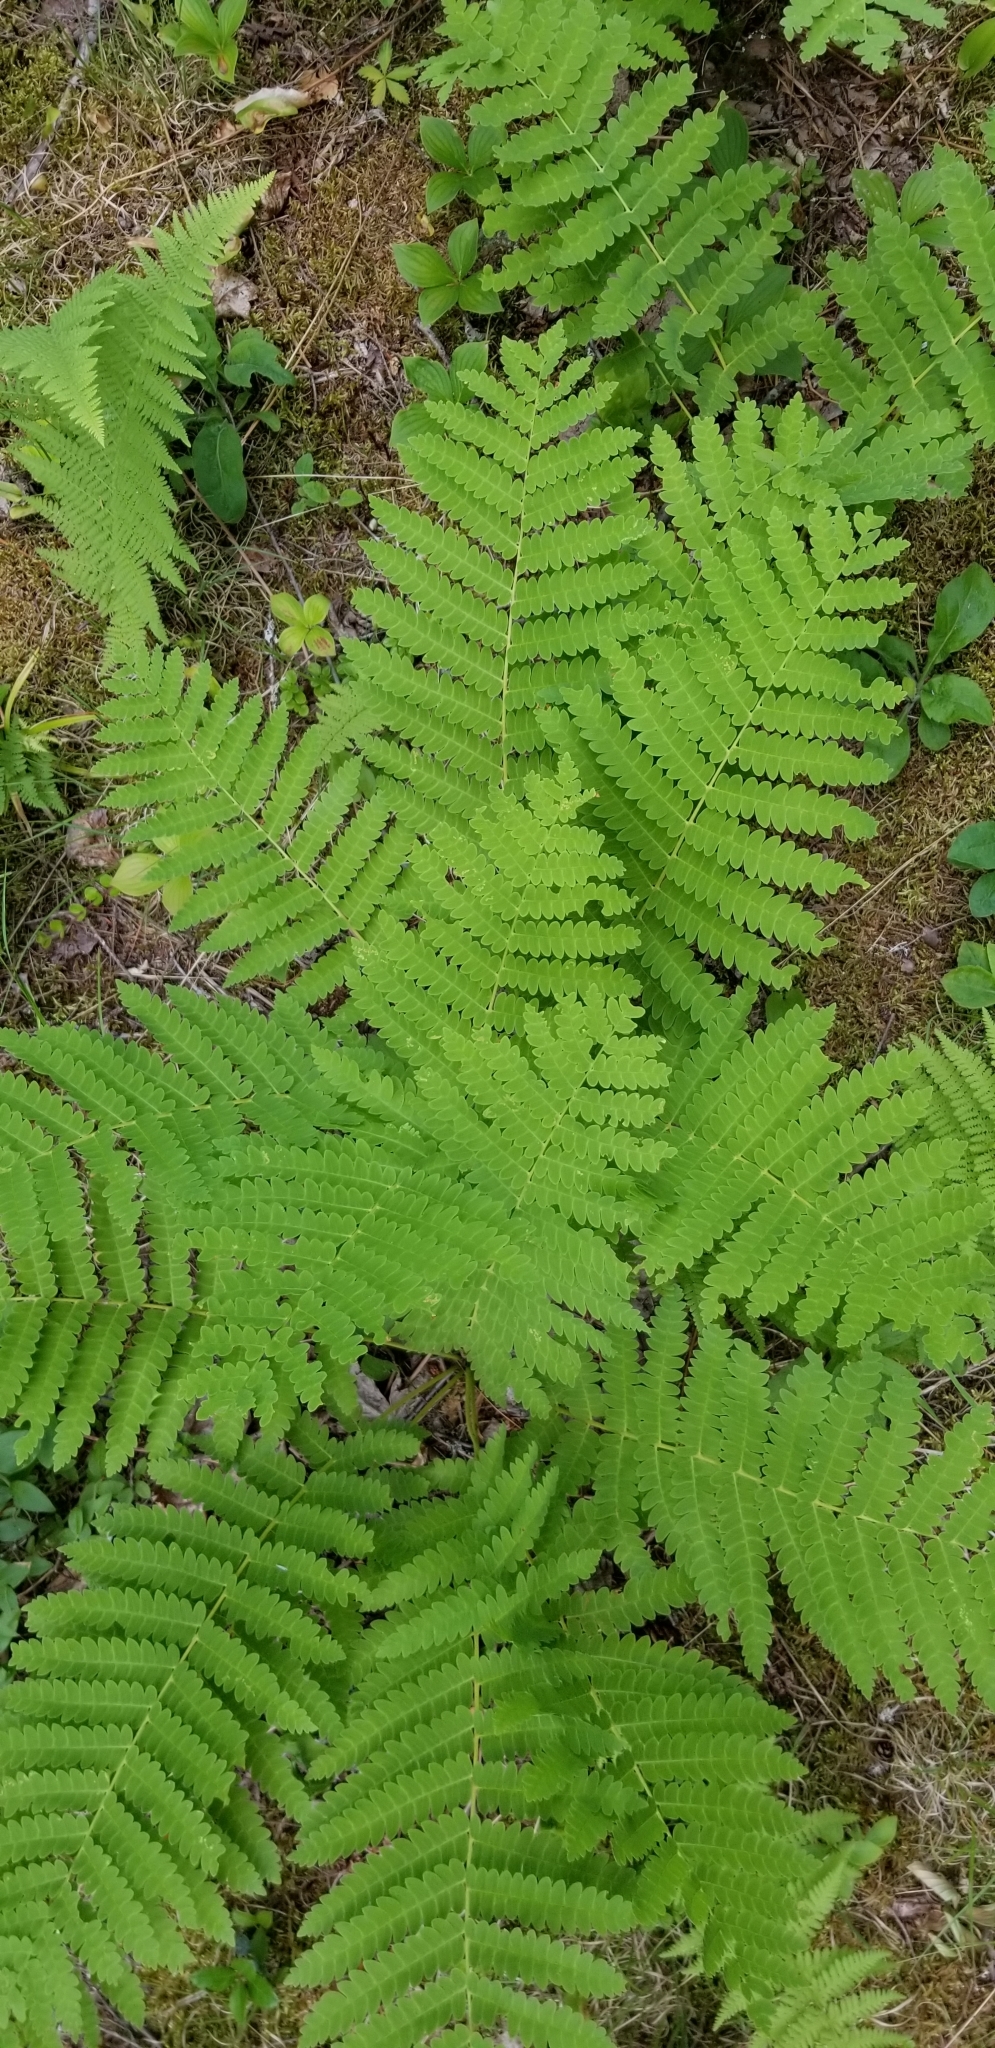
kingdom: Plantae
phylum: Tracheophyta
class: Polypodiopsida
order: Osmundales
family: Osmundaceae
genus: Claytosmunda
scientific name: Claytosmunda claytoniana
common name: Clayton's fern
